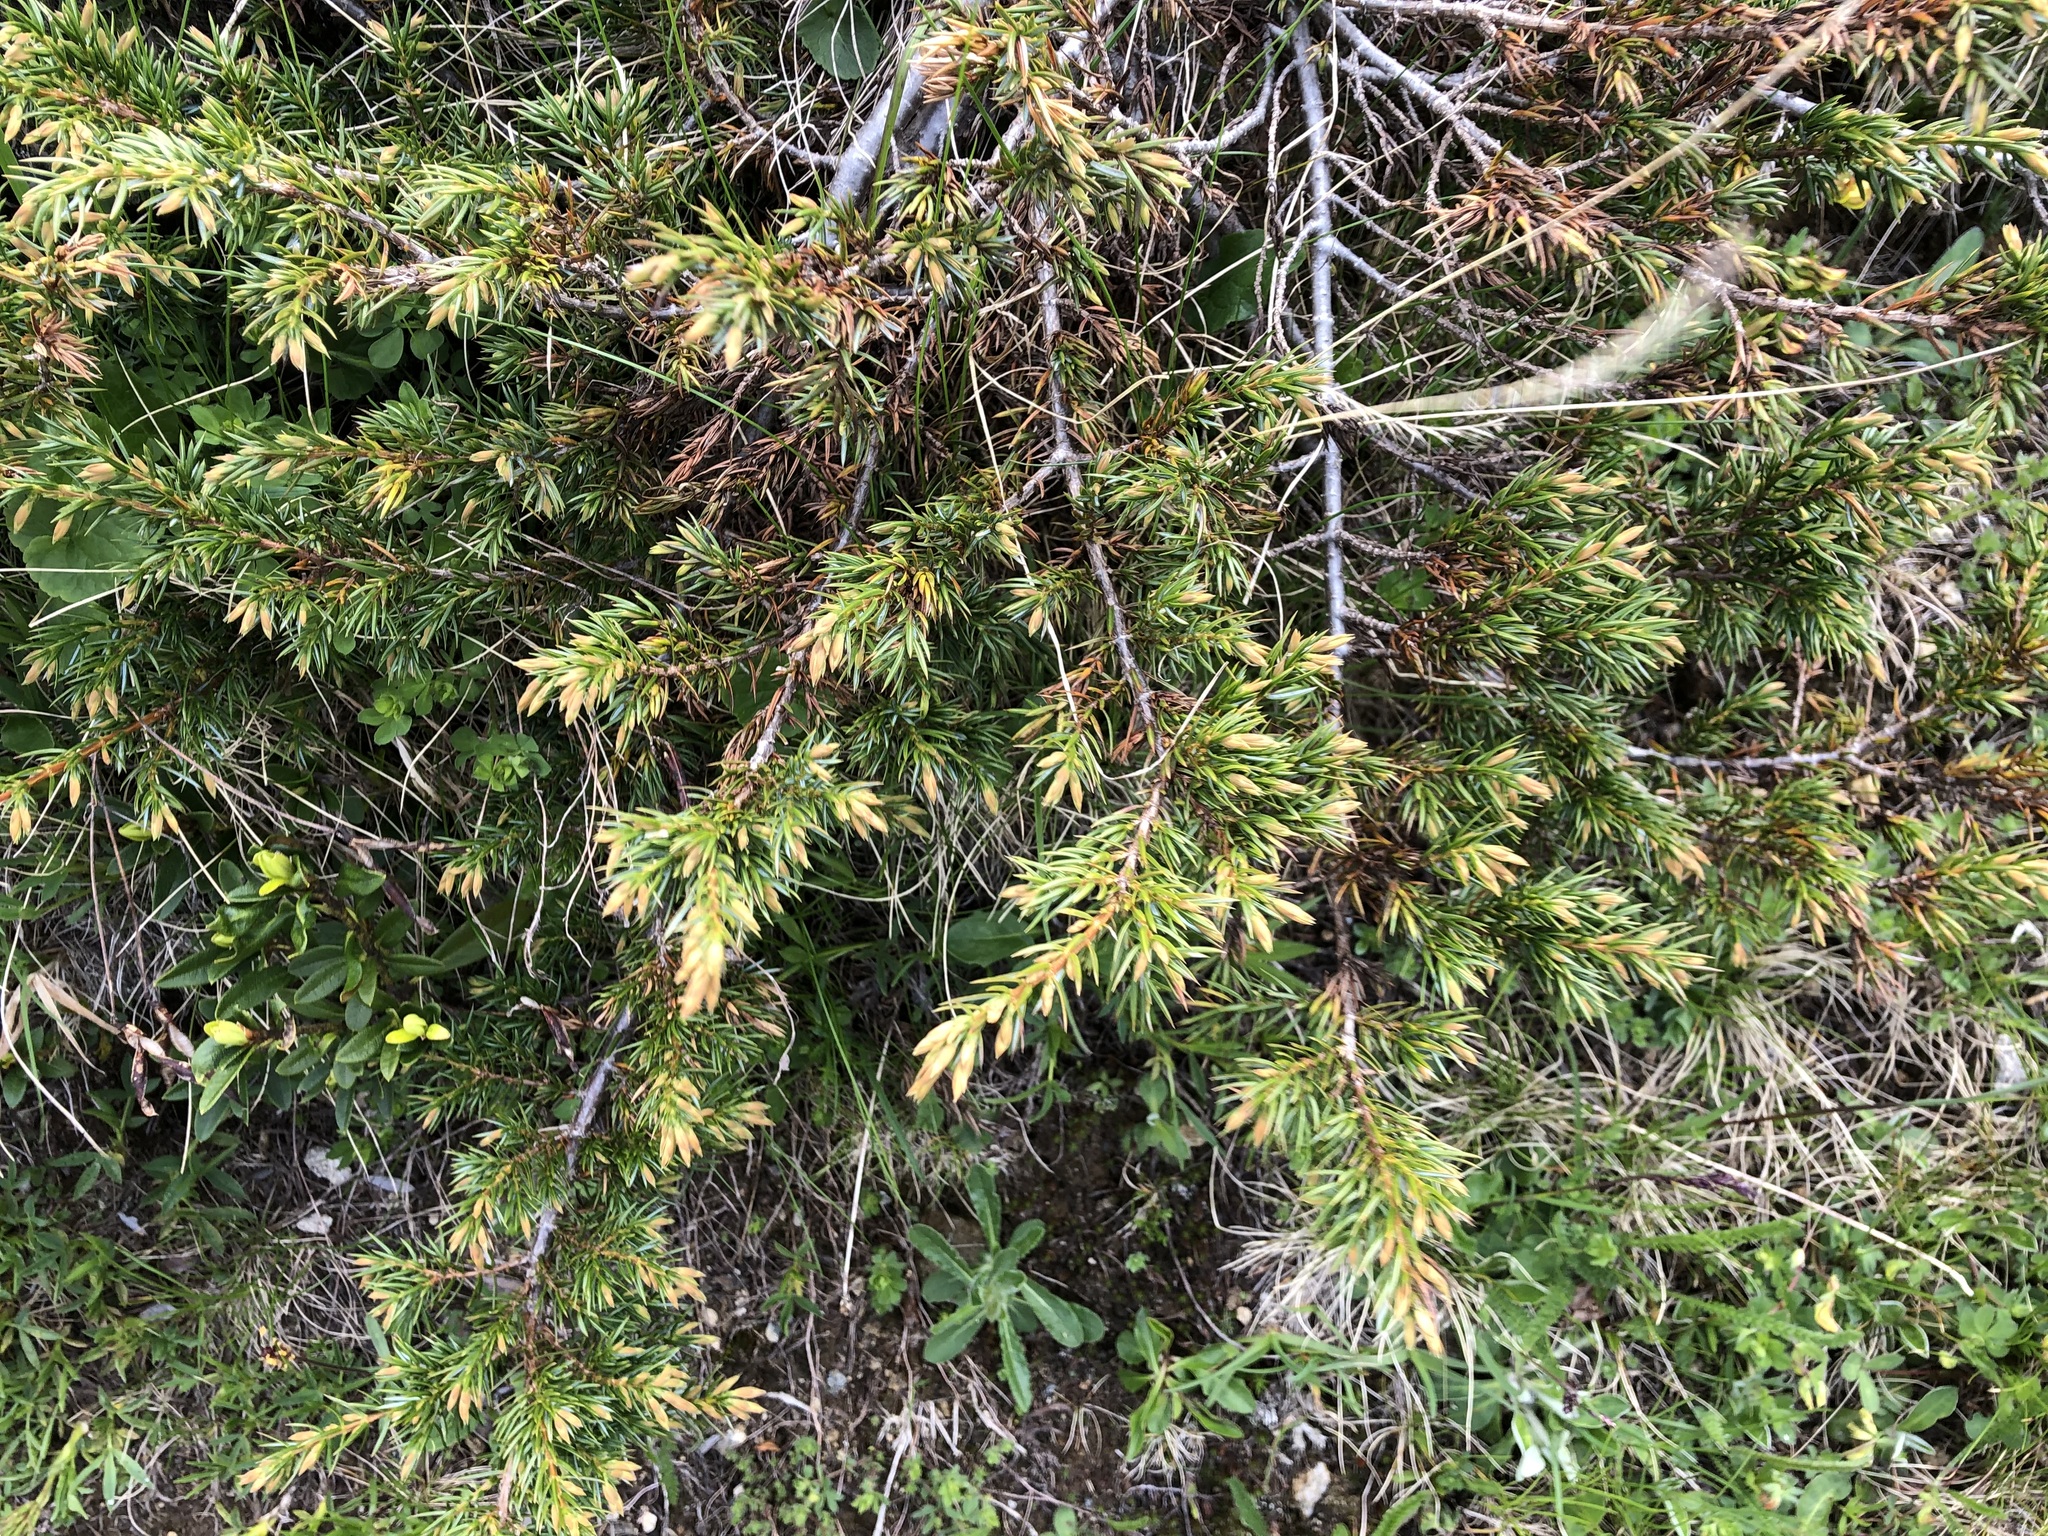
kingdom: Plantae
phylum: Tracheophyta
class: Pinopsida
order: Pinales
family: Cupressaceae
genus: Juniperus
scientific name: Juniperus communis
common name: Common juniper
